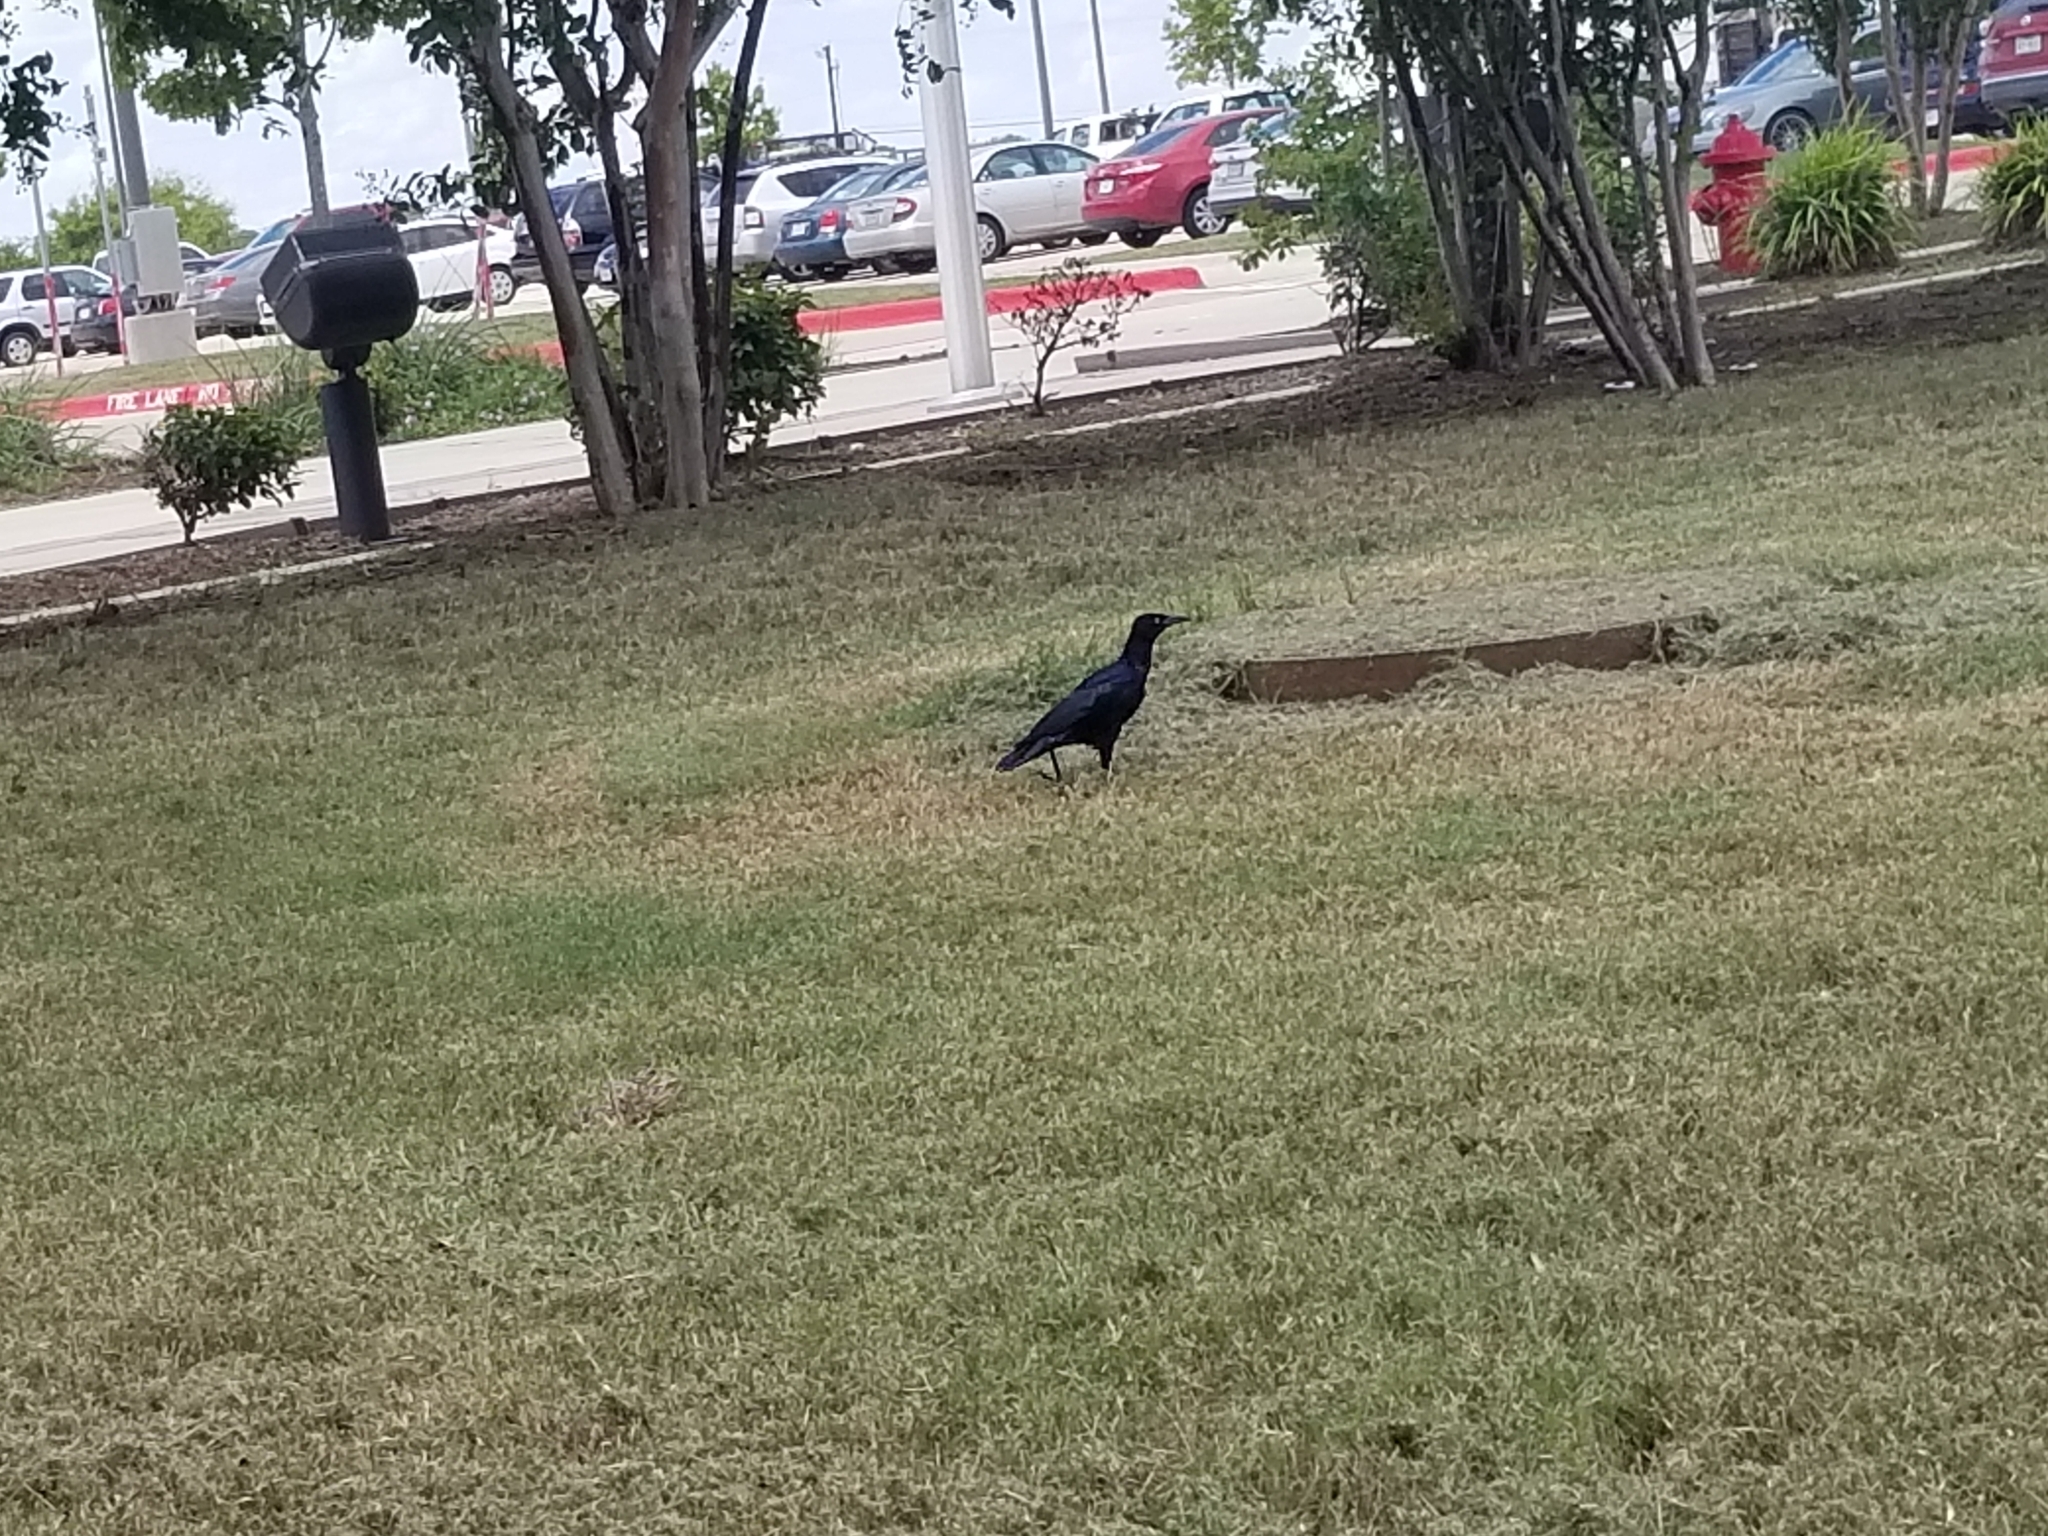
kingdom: Animalia
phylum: Chordata
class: Aves
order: Passeriformes
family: Icteridae
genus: Quiscalus
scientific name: Quiscalus mexicanus
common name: Great-tailed grackle
